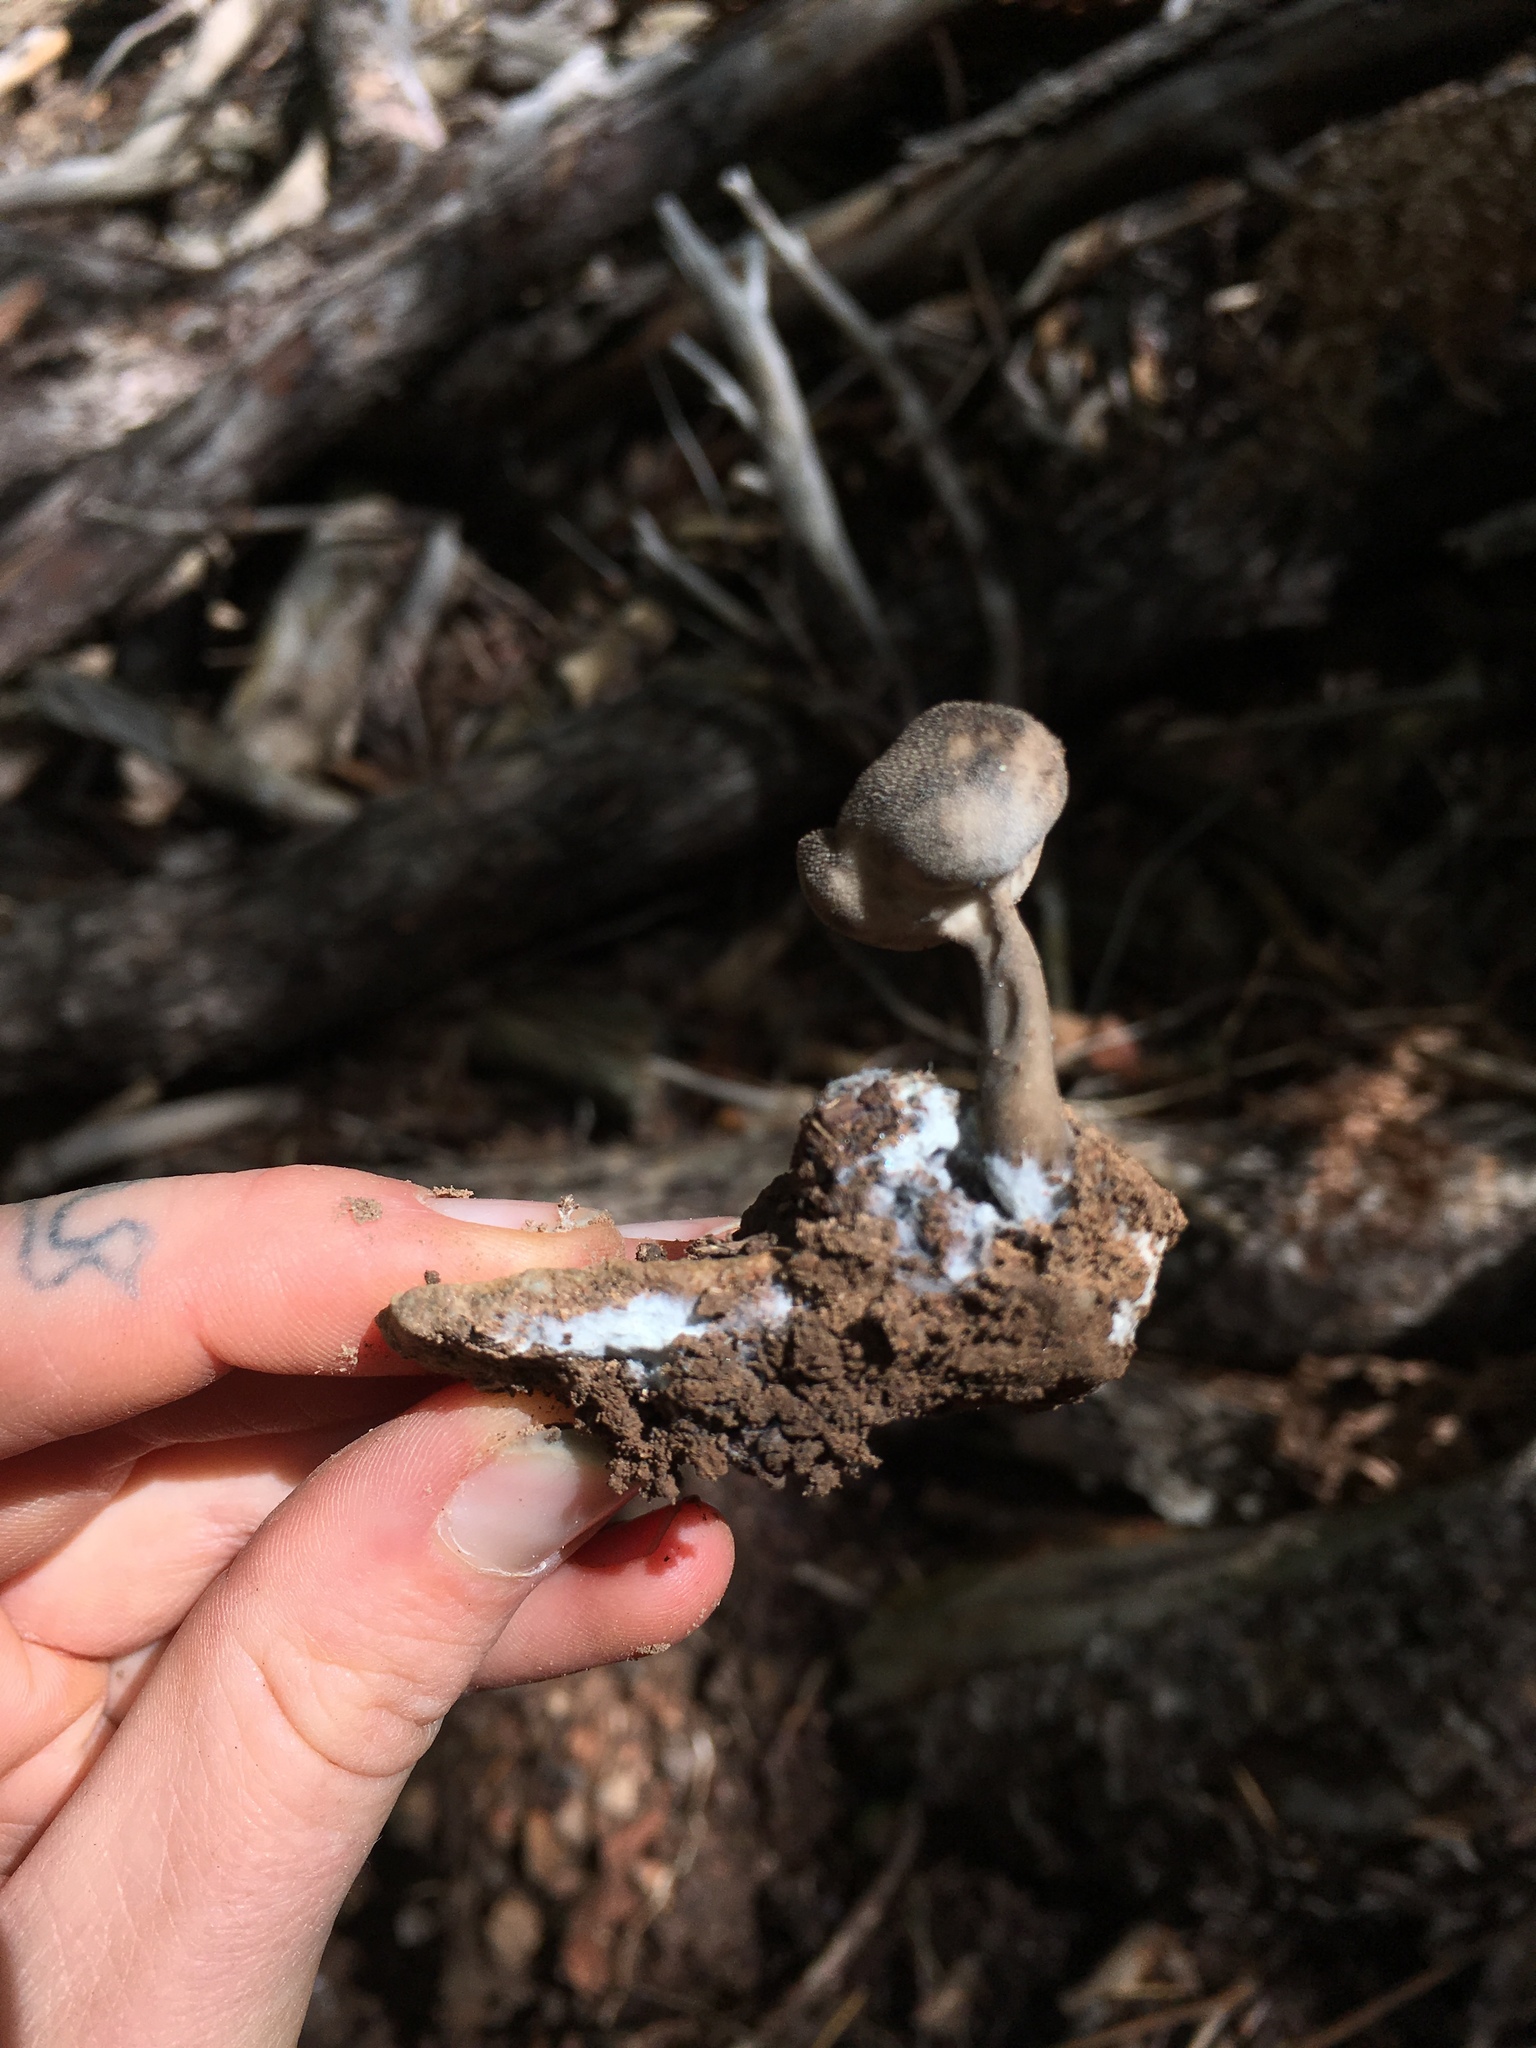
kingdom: Fungi
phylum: Ascomycota
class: Pezizomycetes
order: Pezizales
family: Helvellaceae
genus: Helvella
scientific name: Helvella macropus
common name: Felt saddle
